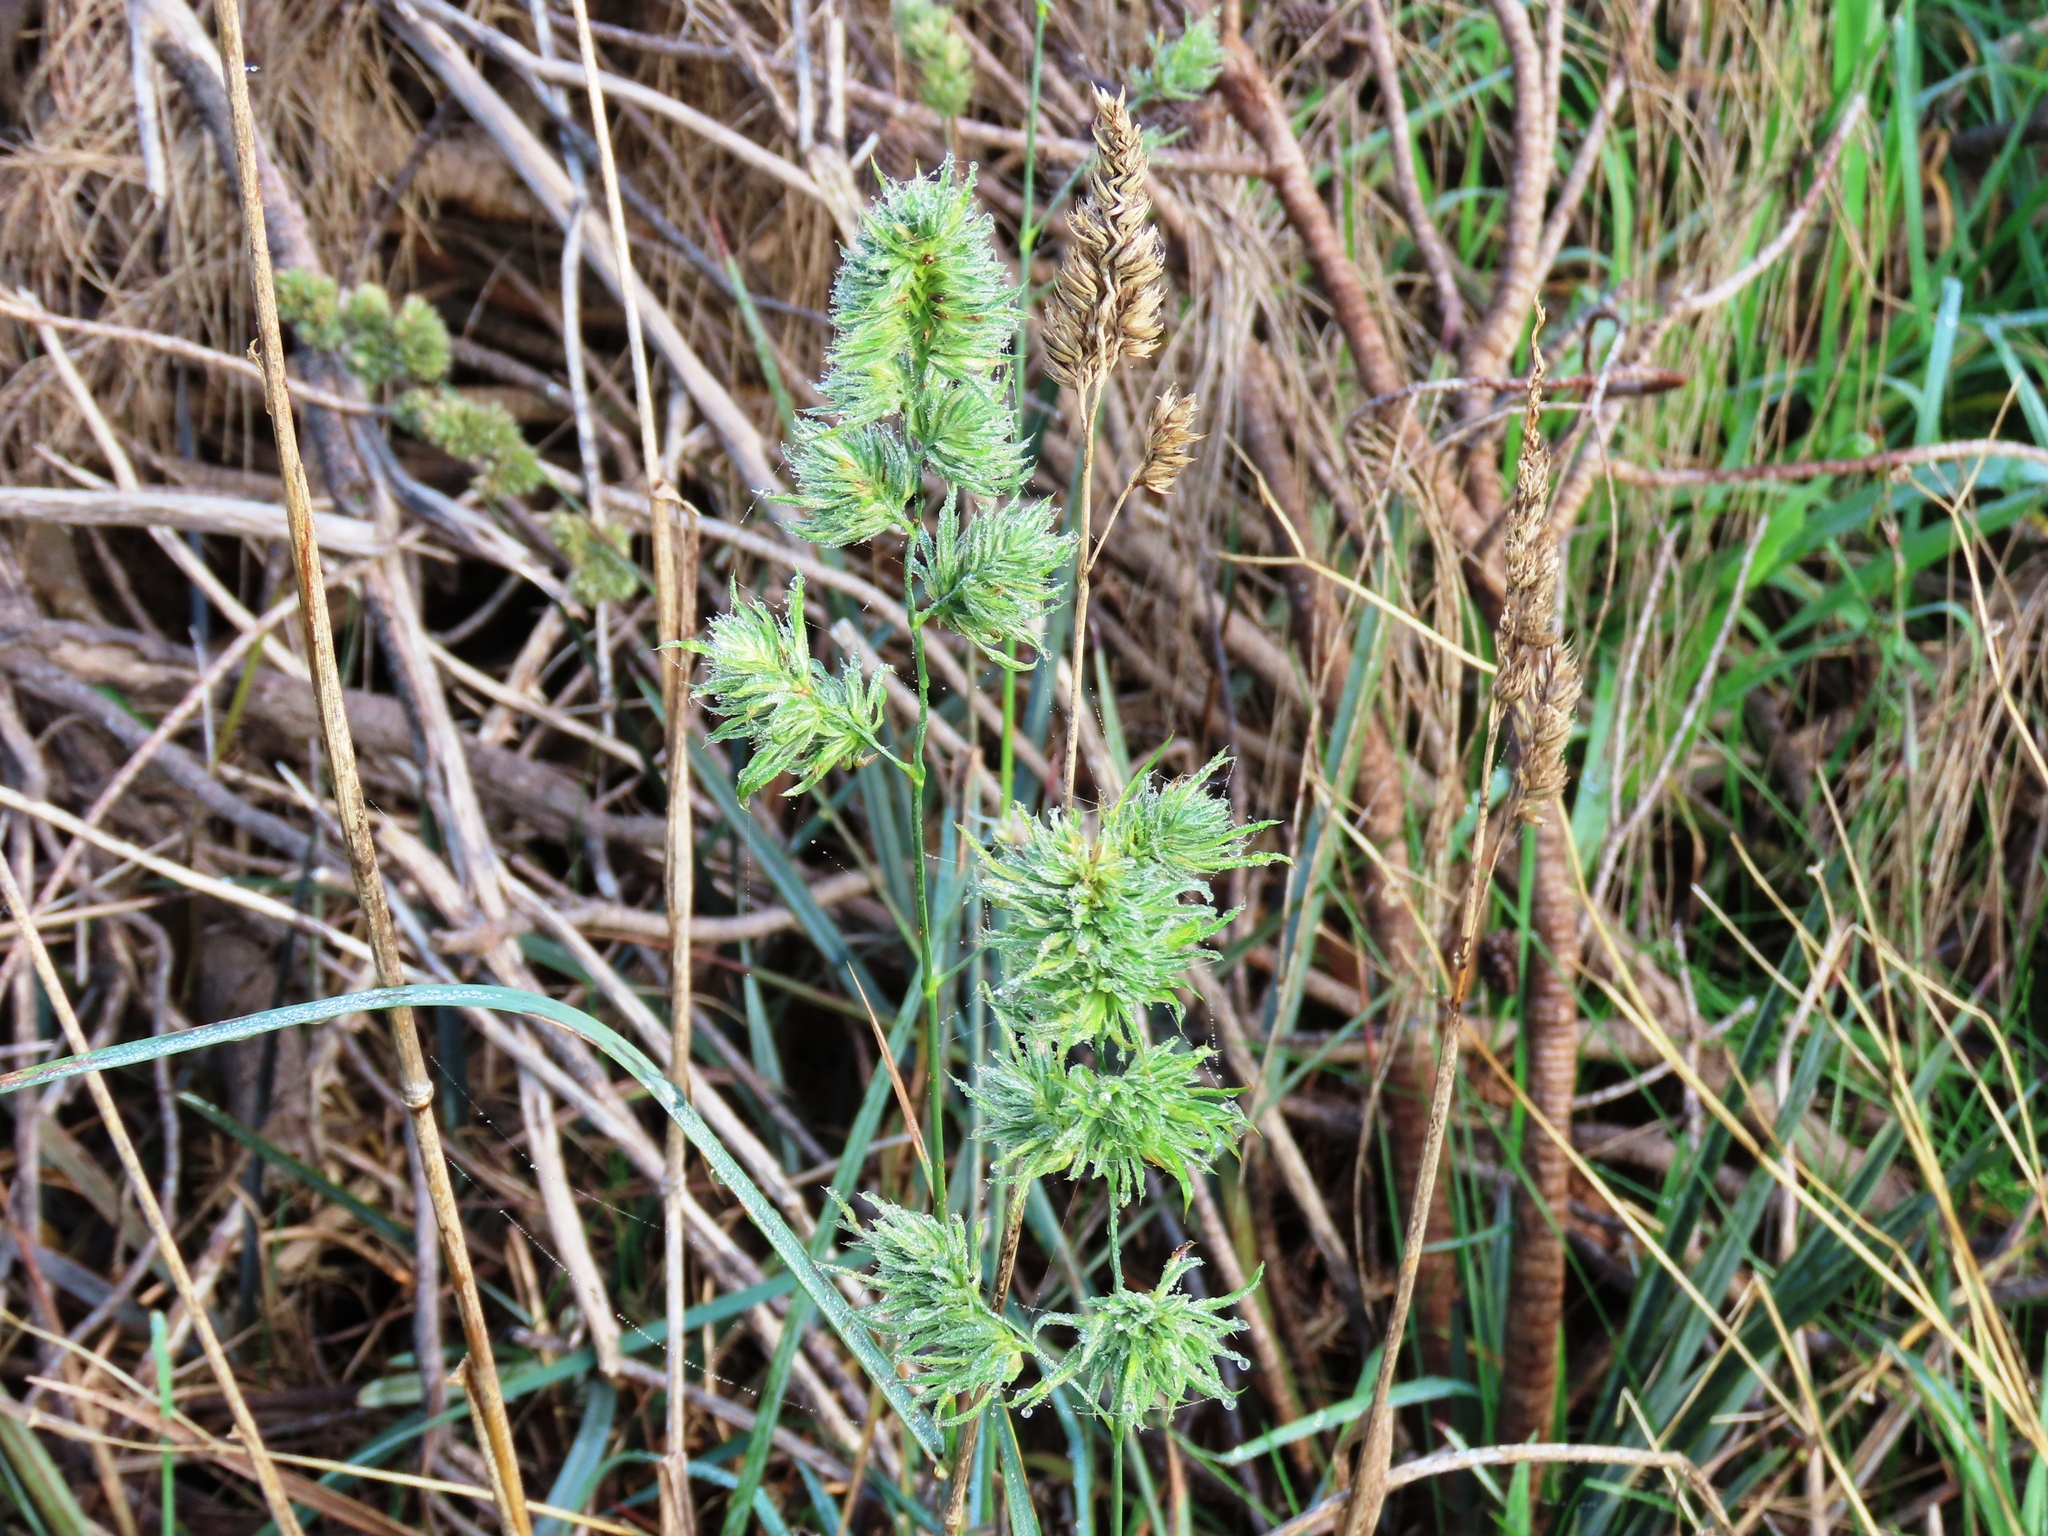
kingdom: Plantae
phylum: Tracheophyta
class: Liliopsida
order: Poales
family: Poaceae
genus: Dactylis
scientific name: Dactylis glomerata
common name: Orchardgrass
